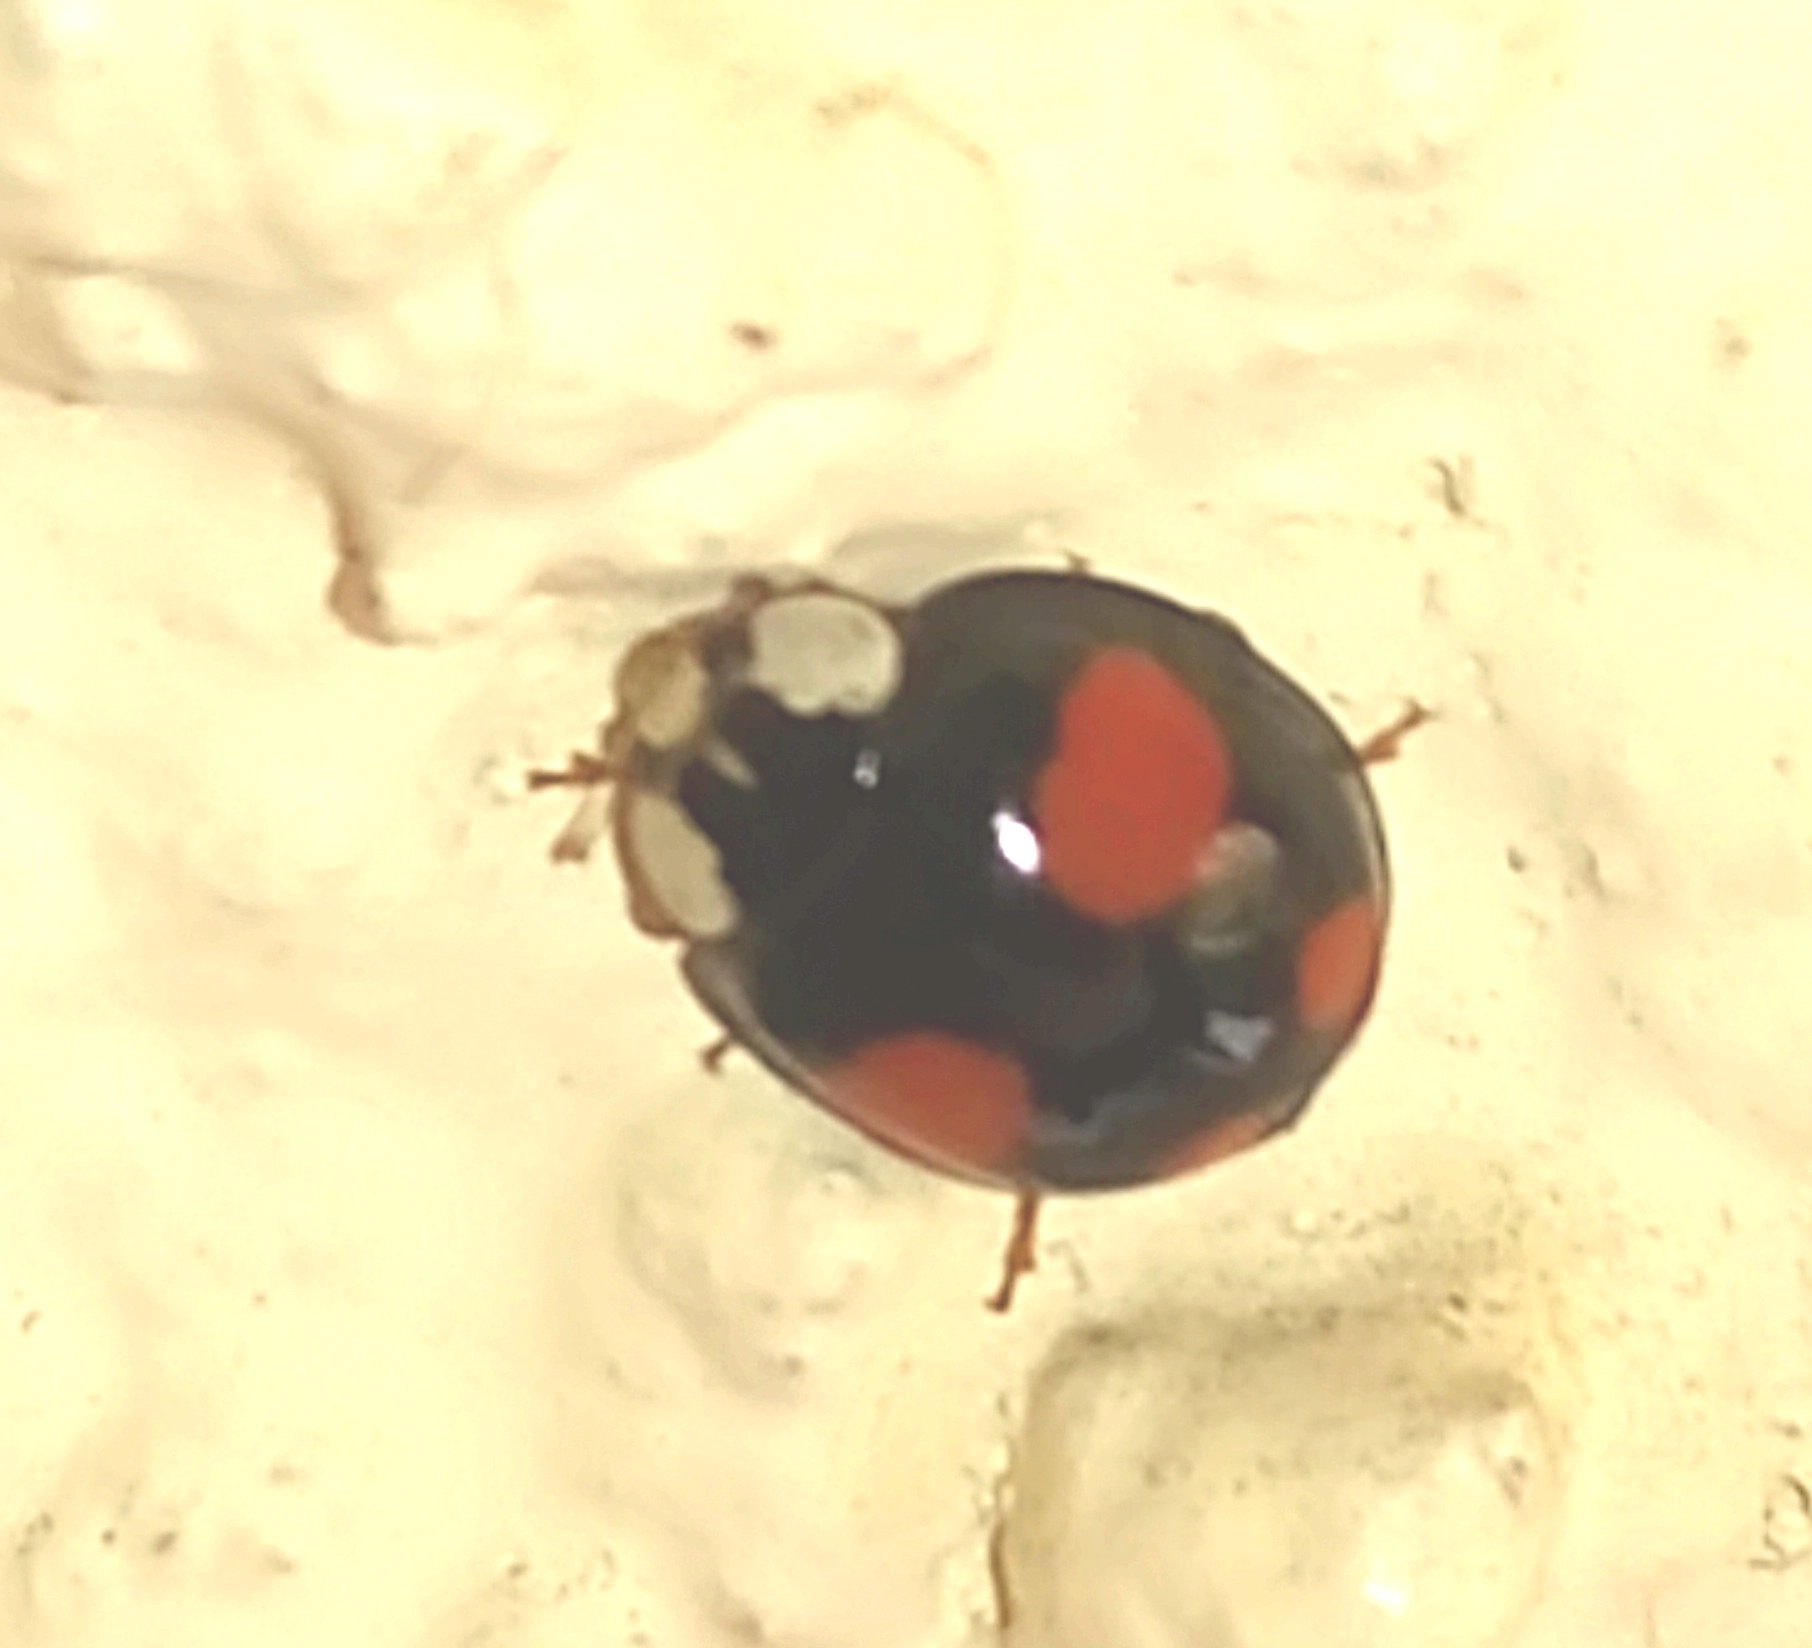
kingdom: Animalia
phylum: Arthropoda
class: Insecta
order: Coleoptera
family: Coccinellidae
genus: Harmonia
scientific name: Harmonia axyridis
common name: Harlequin ladybird
